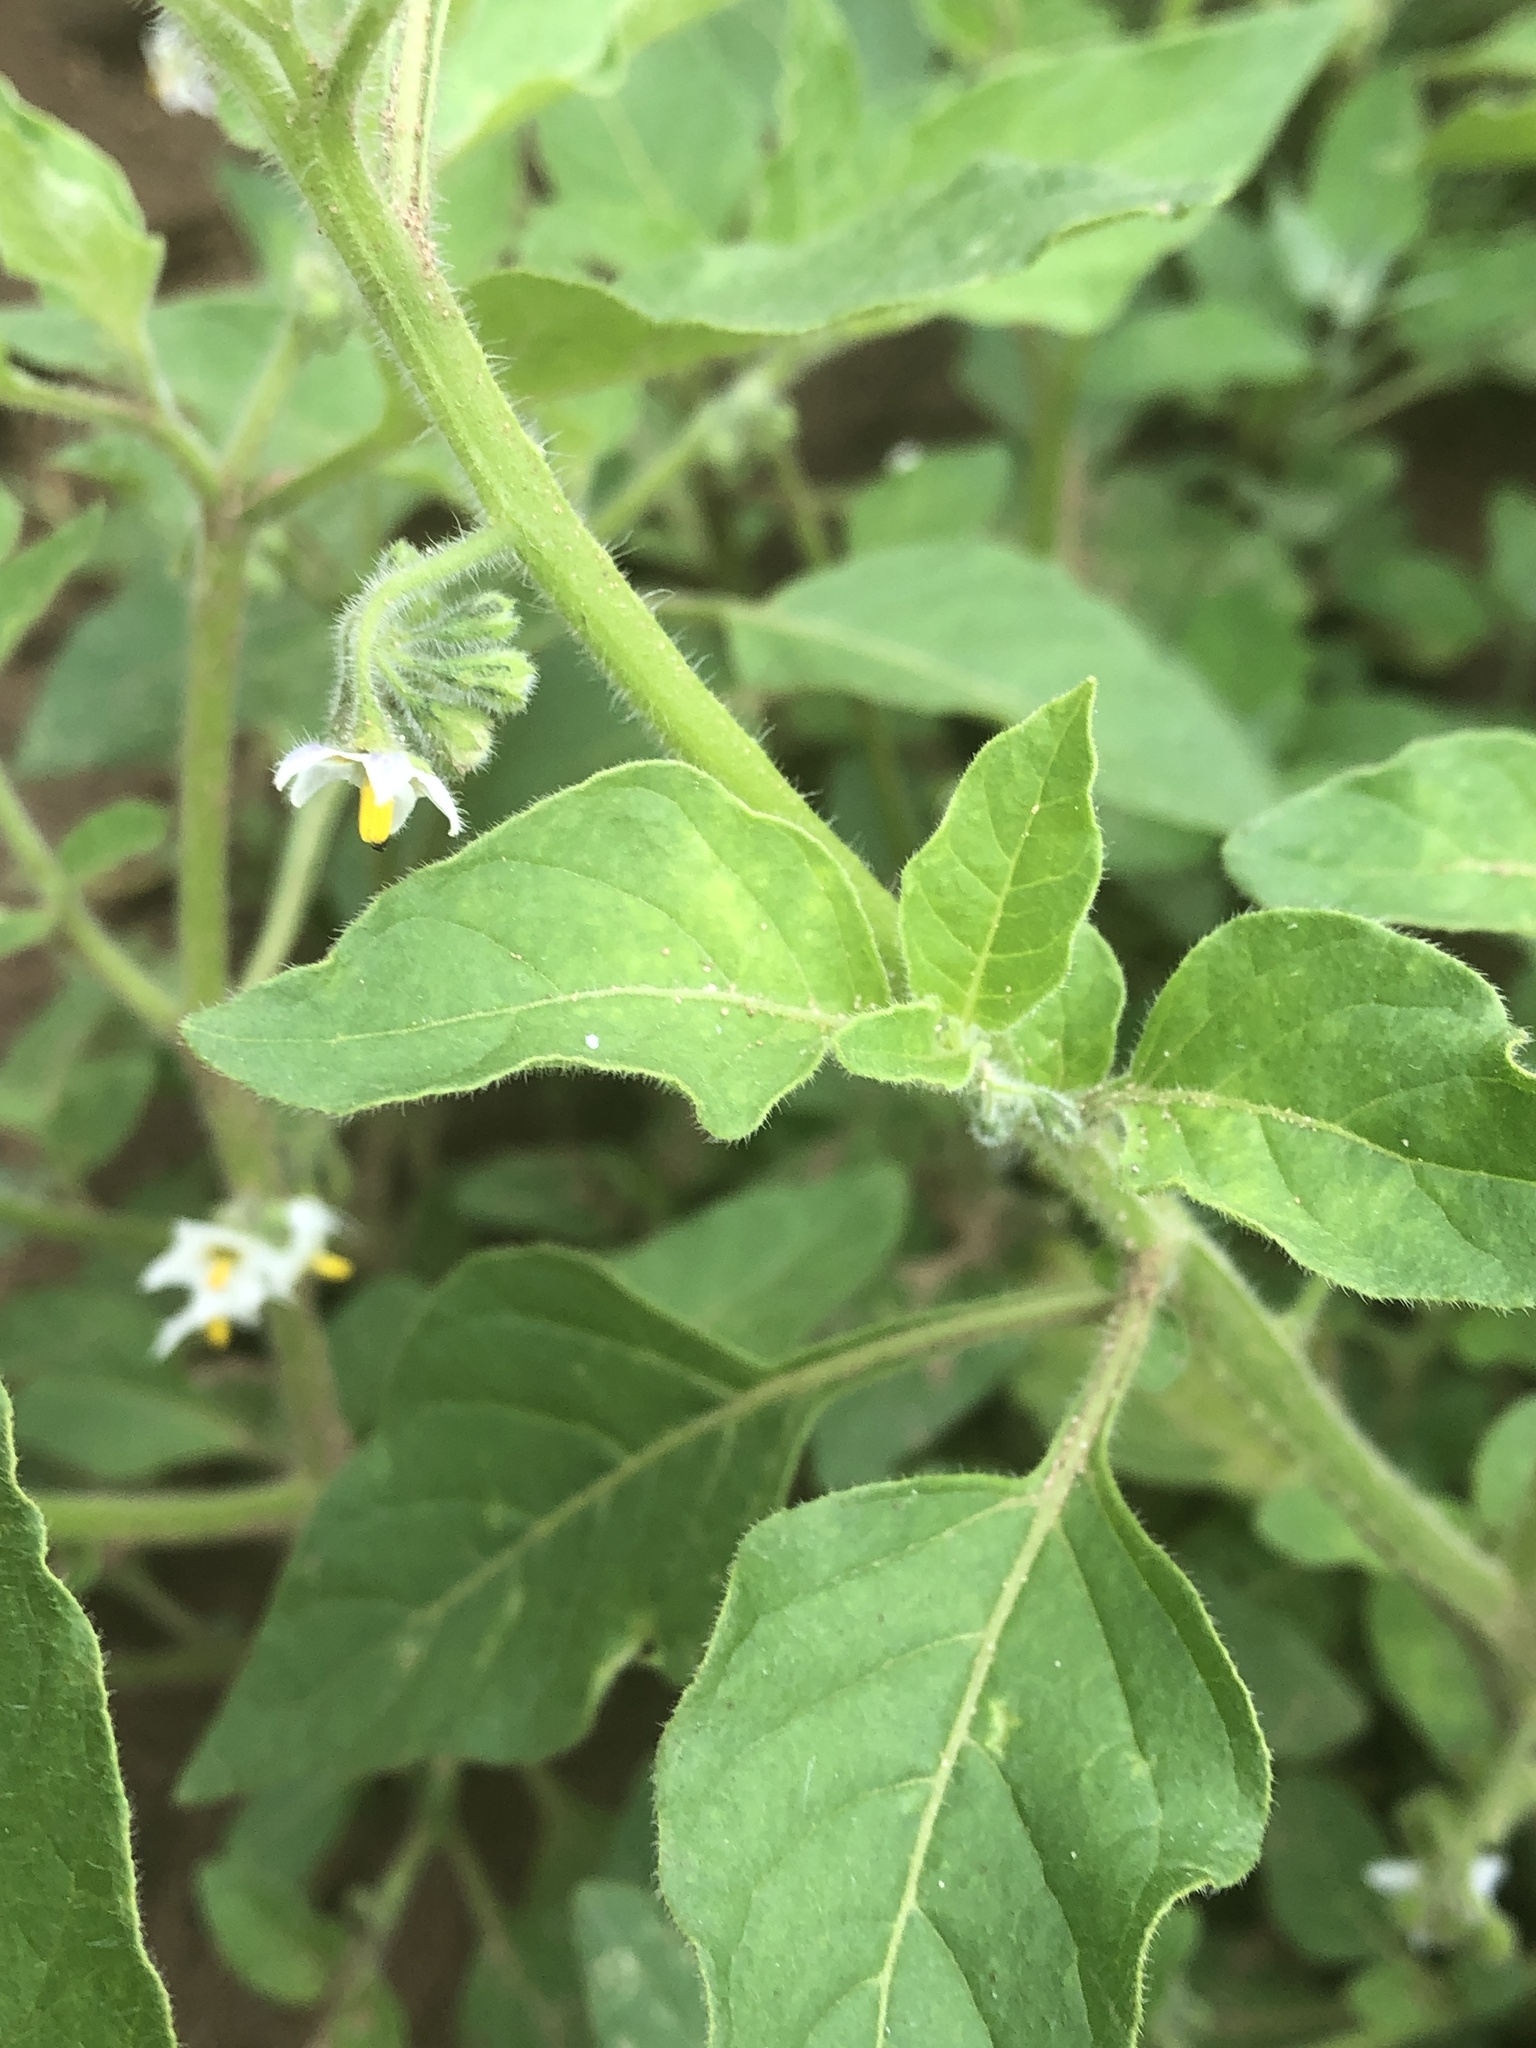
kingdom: Plantae
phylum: Tracheophyta
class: Magnoliopsida
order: Solanales
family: Solanaceae
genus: Solanum
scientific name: Solanum nitidibaccatum
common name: Hairy nightshade
